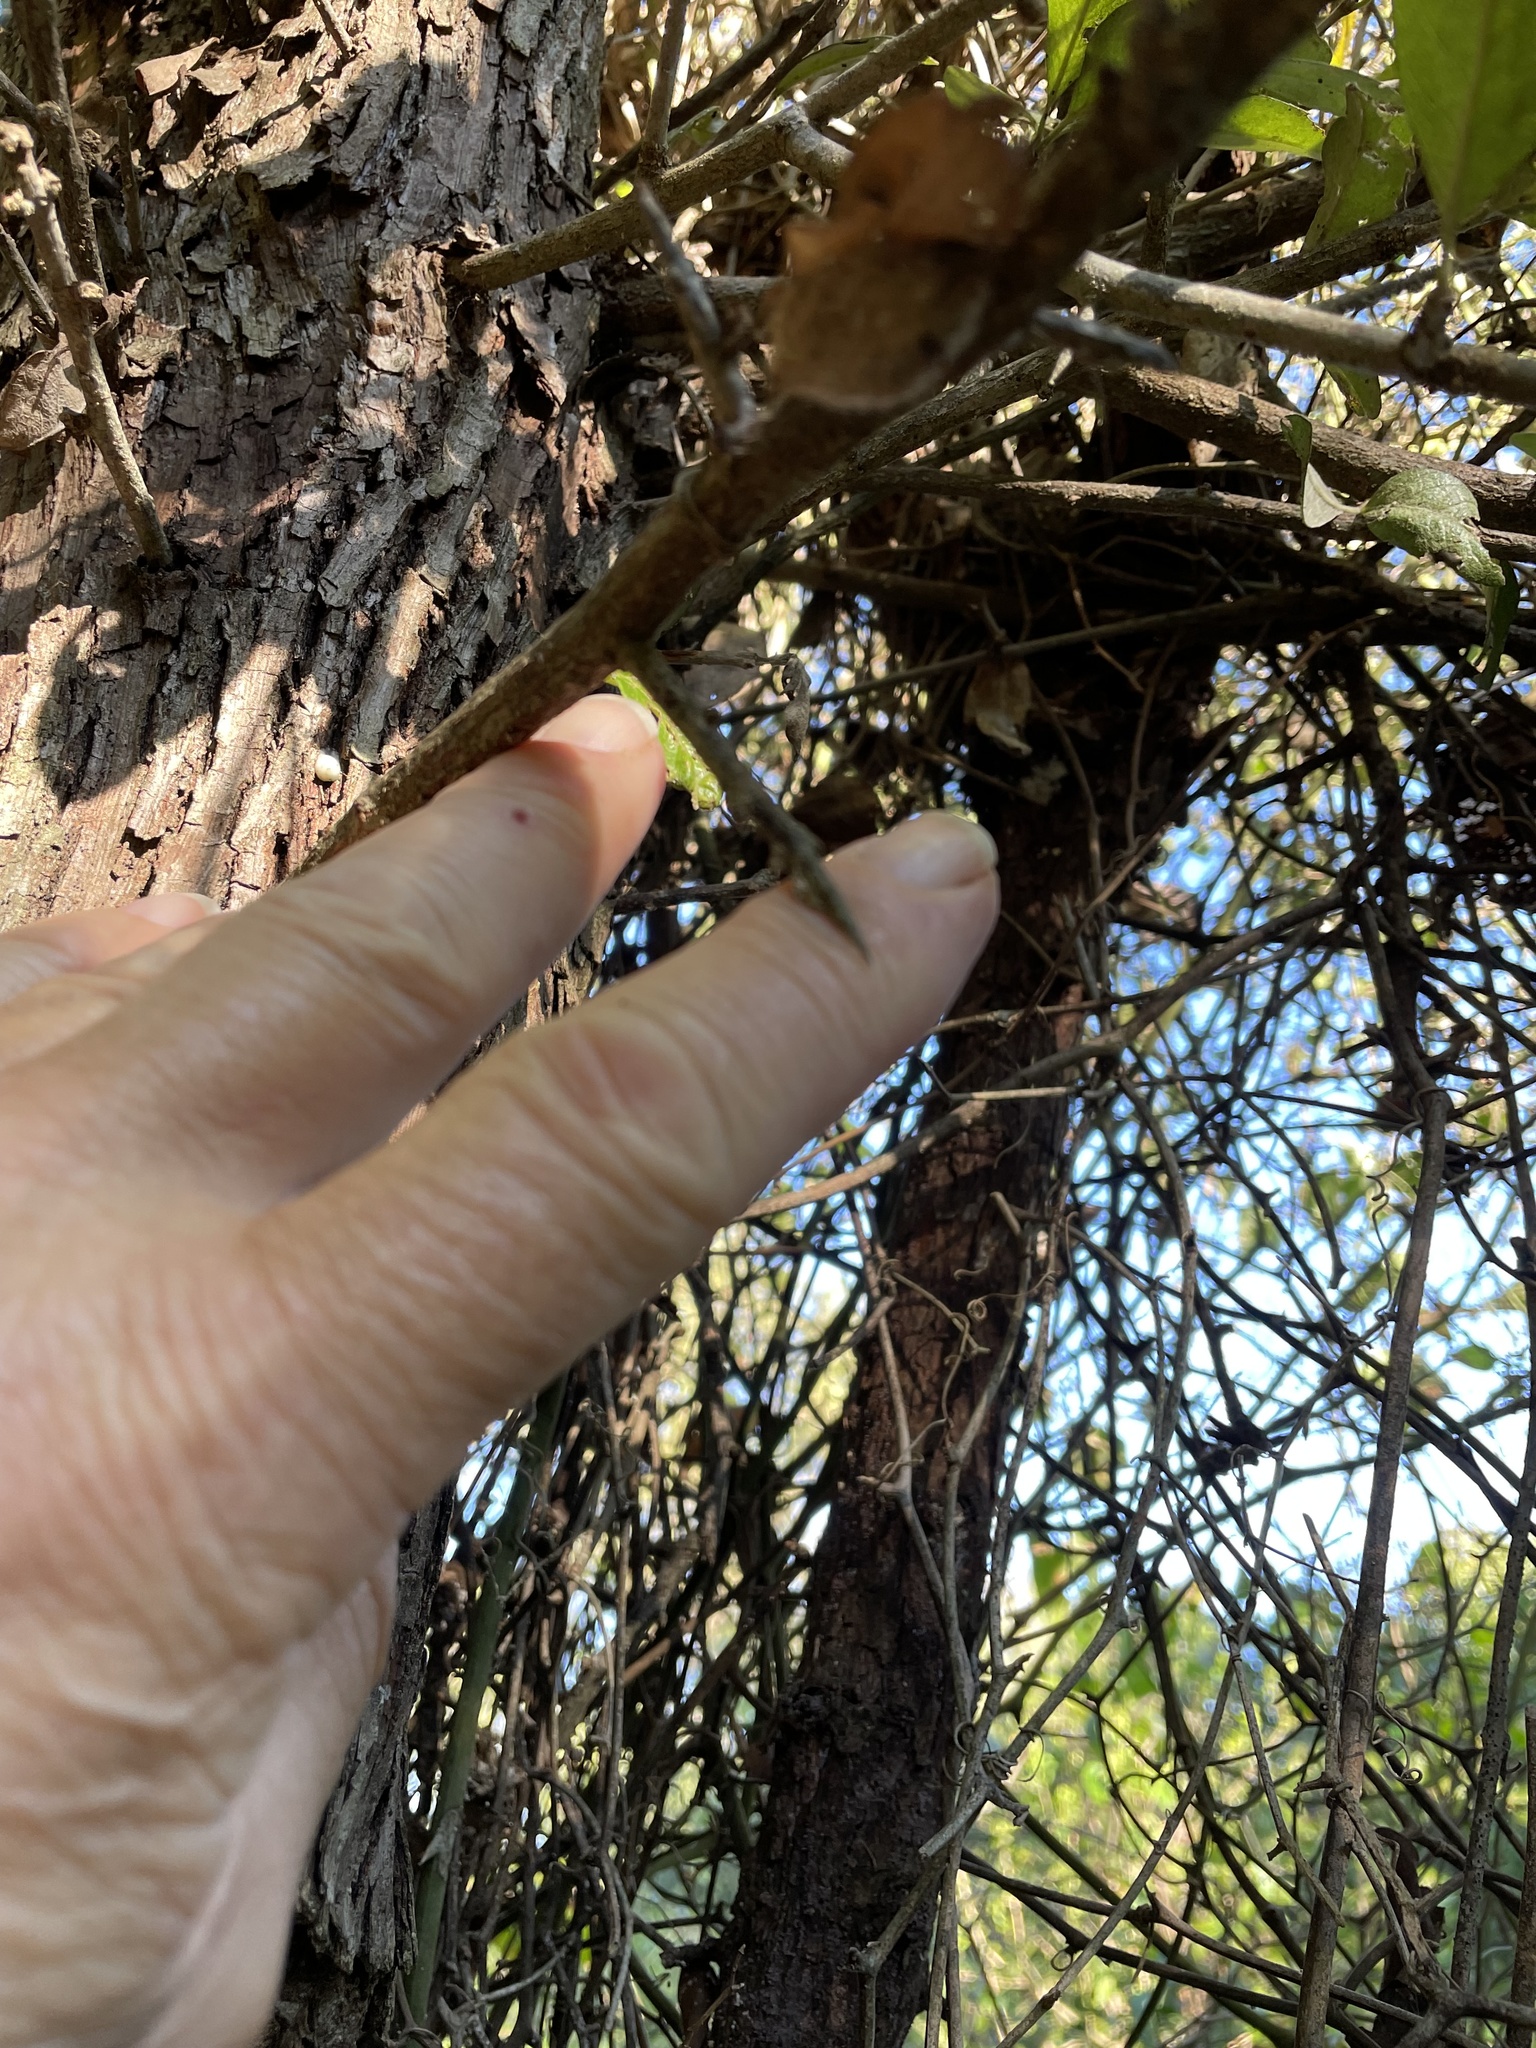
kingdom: Plantae
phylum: Tracheophyta
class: Magnoliopsida
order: Ericales
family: Sapotaceae
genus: Sideroxylon
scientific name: Sideroxylon lanuginosum
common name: Chittamwood
